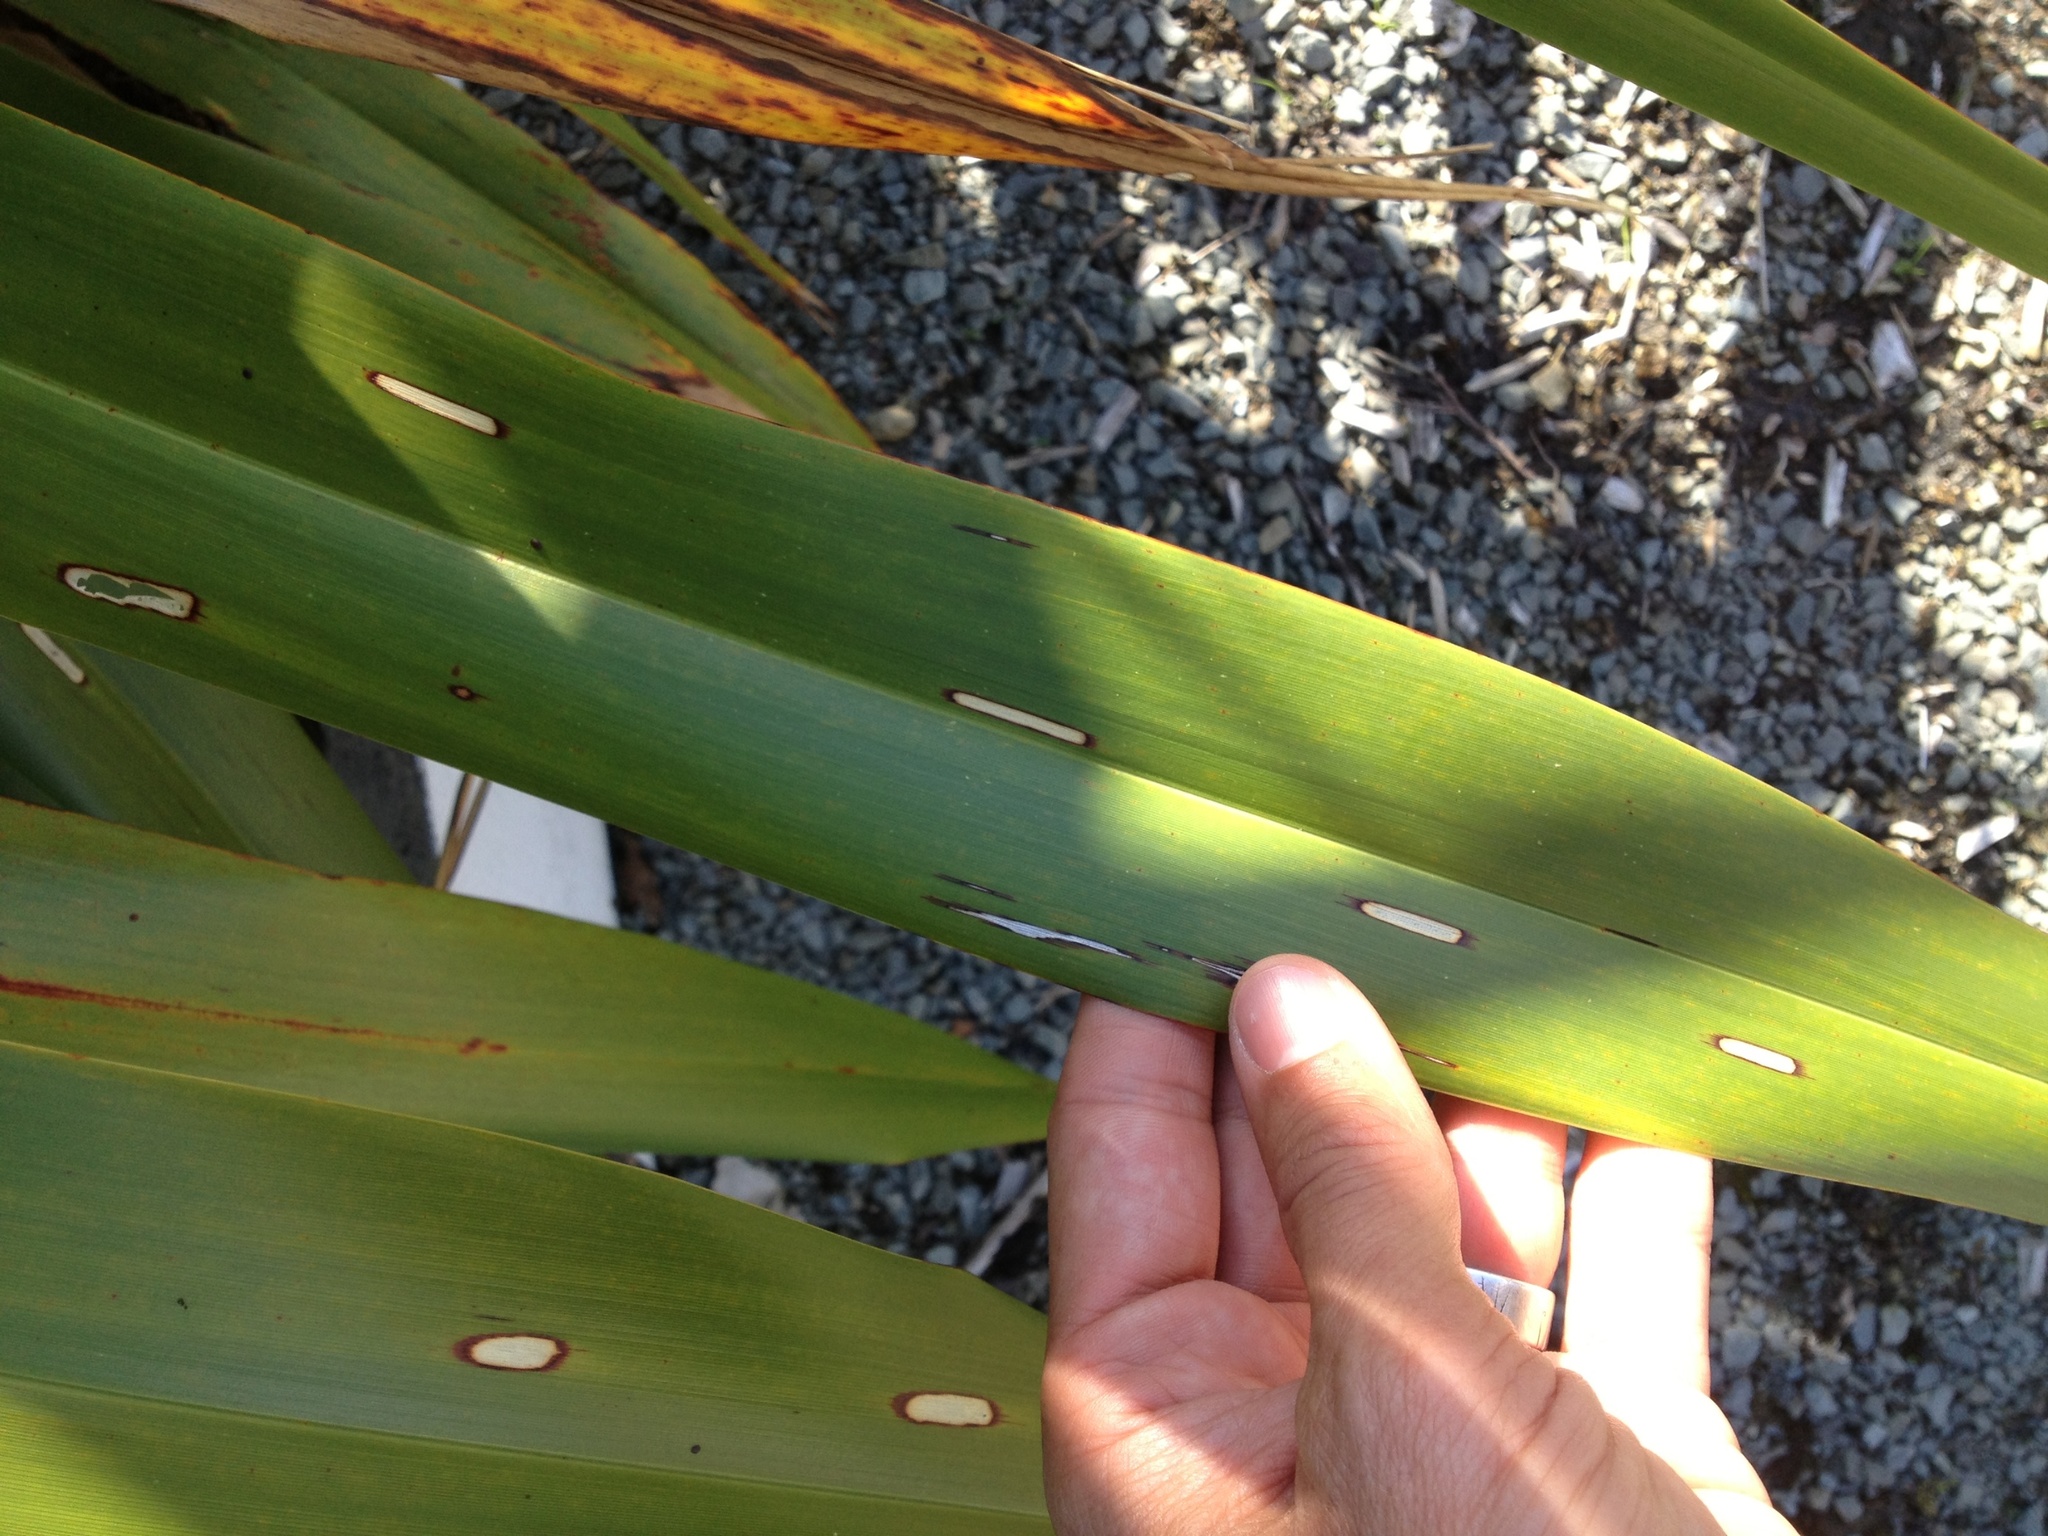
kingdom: Animalia
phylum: Arthropoda
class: Insecta
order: Lepidoptera
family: Geometridae
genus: Orthoclydon
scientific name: Orthoclydon praefectata
